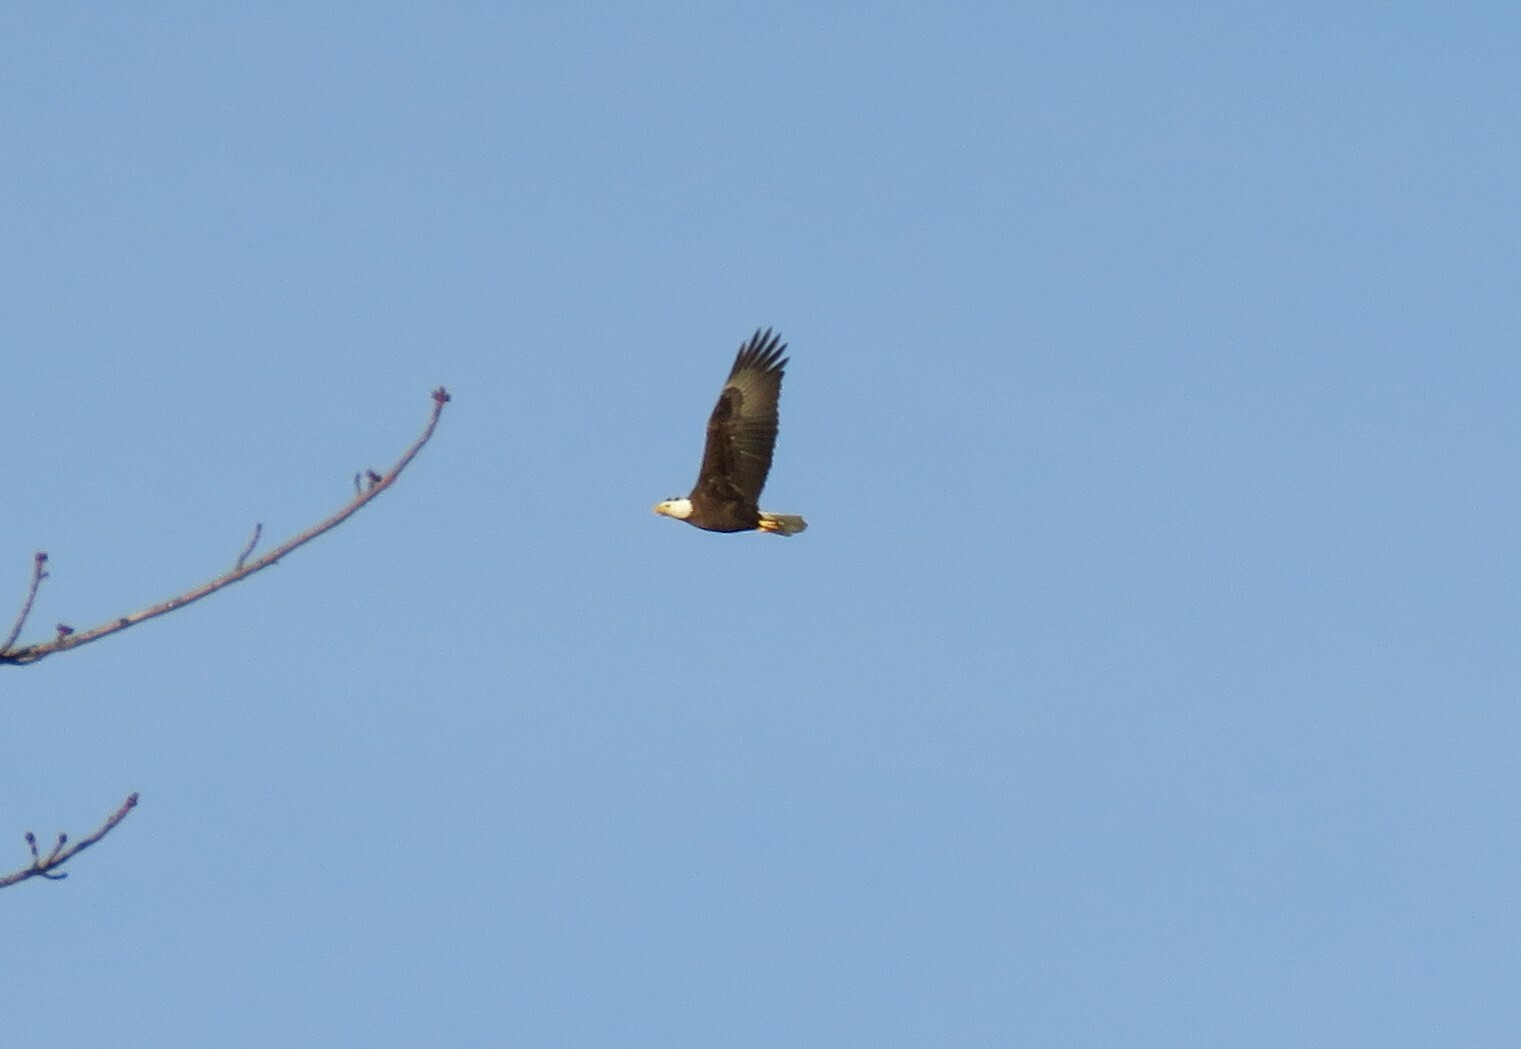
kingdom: Animalia
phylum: Chordata
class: Aves
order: Accipitriformes
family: Accipitridae
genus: Haliaeetus
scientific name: Haliaeetus leucocephalus
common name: Bald eagle
